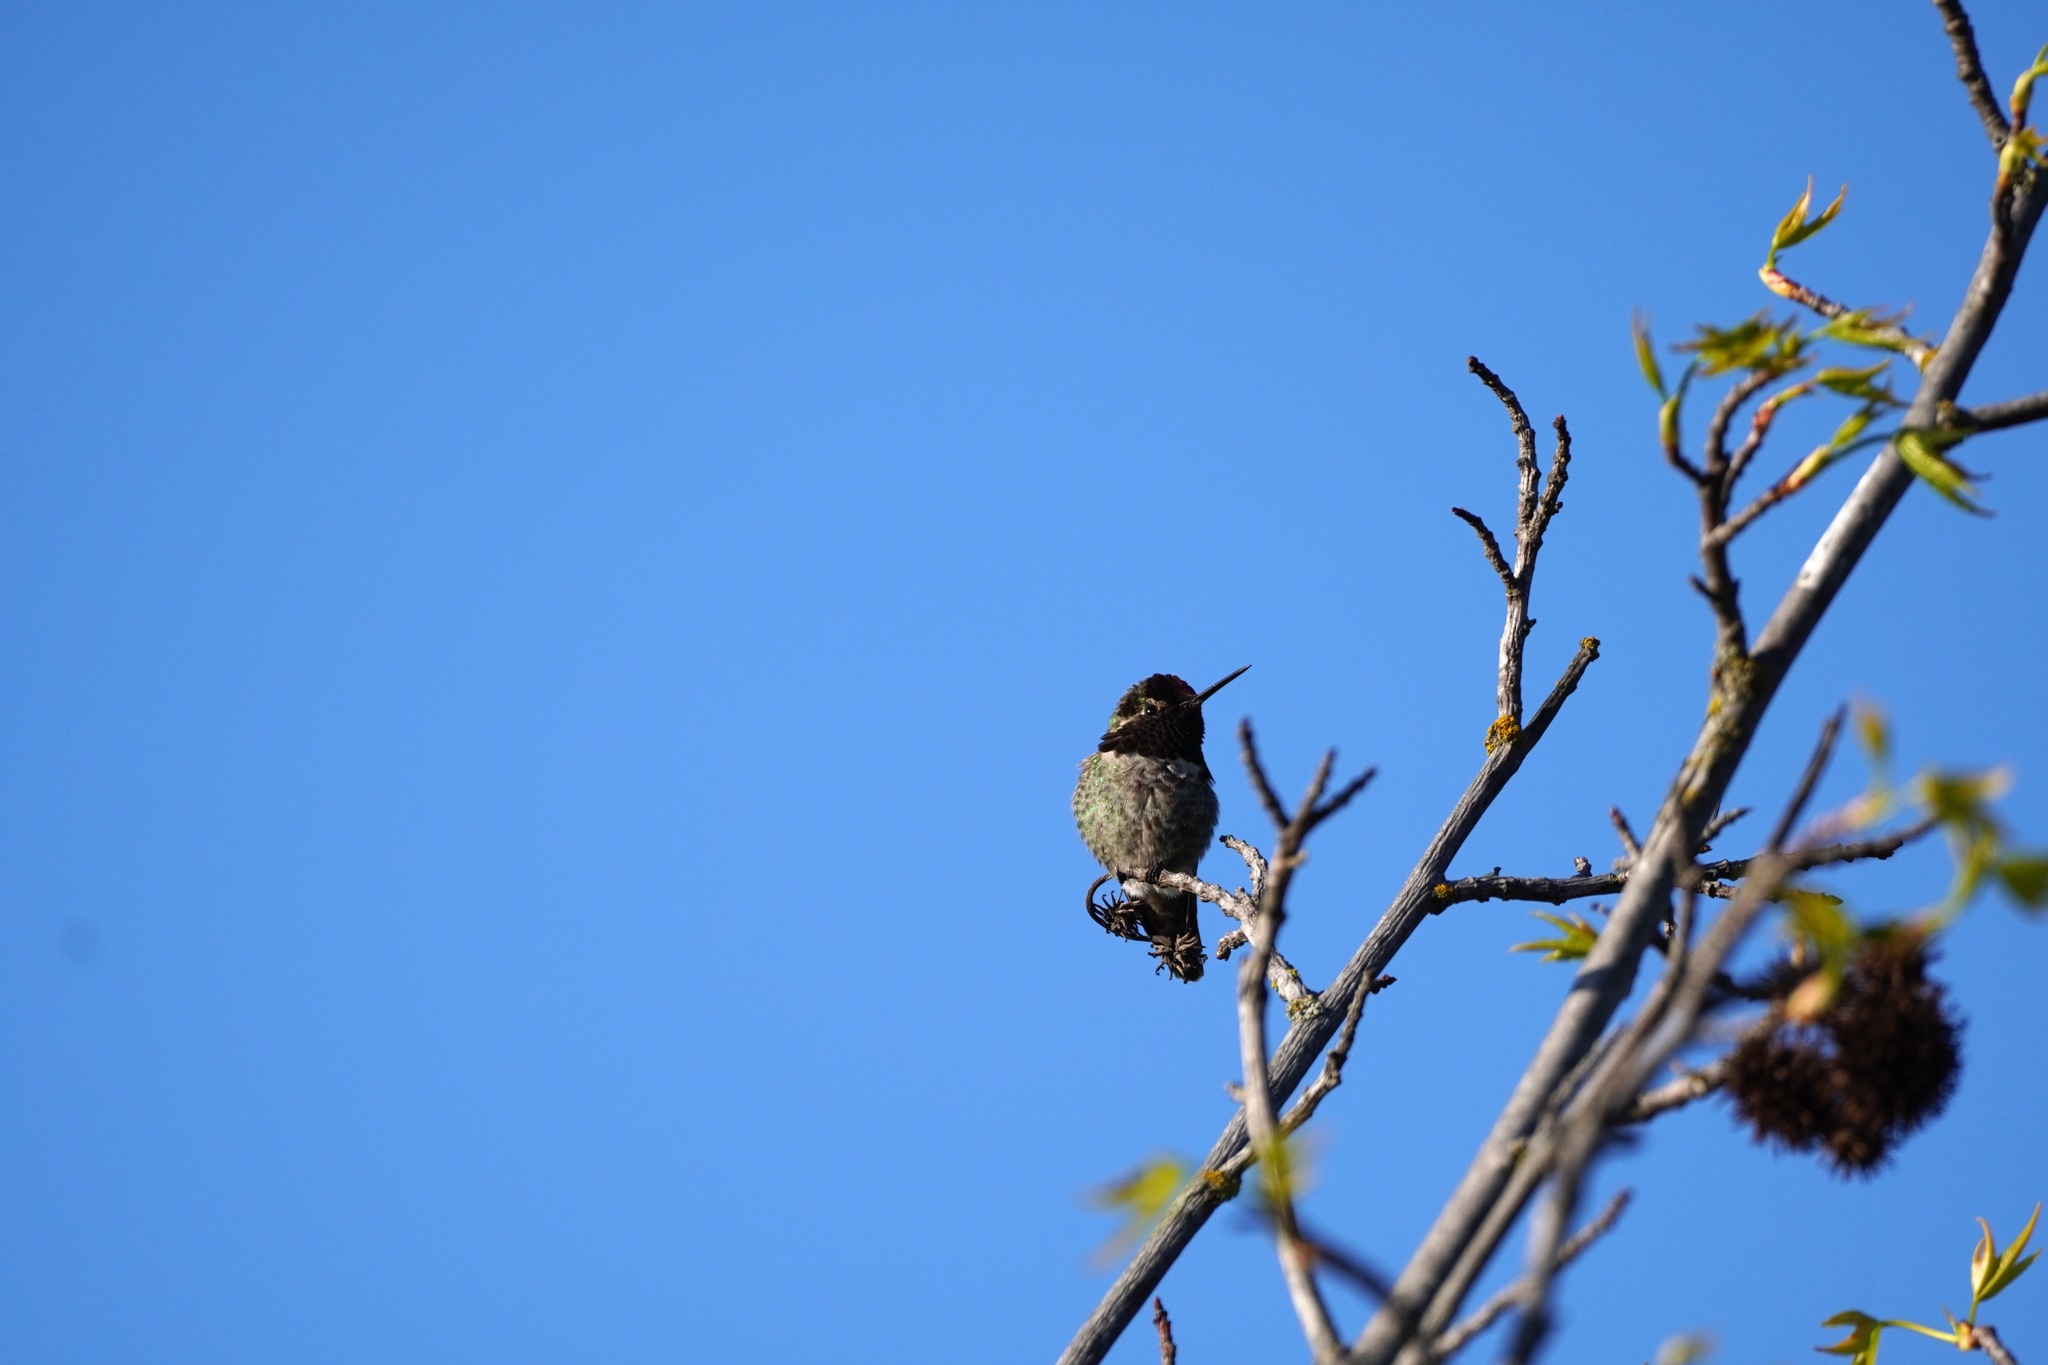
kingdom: Animalia
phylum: Chordata
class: Aves
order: Apodiformes
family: Trochilidae
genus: Calypte
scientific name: Calypte anna
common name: Anna's hummingbird
